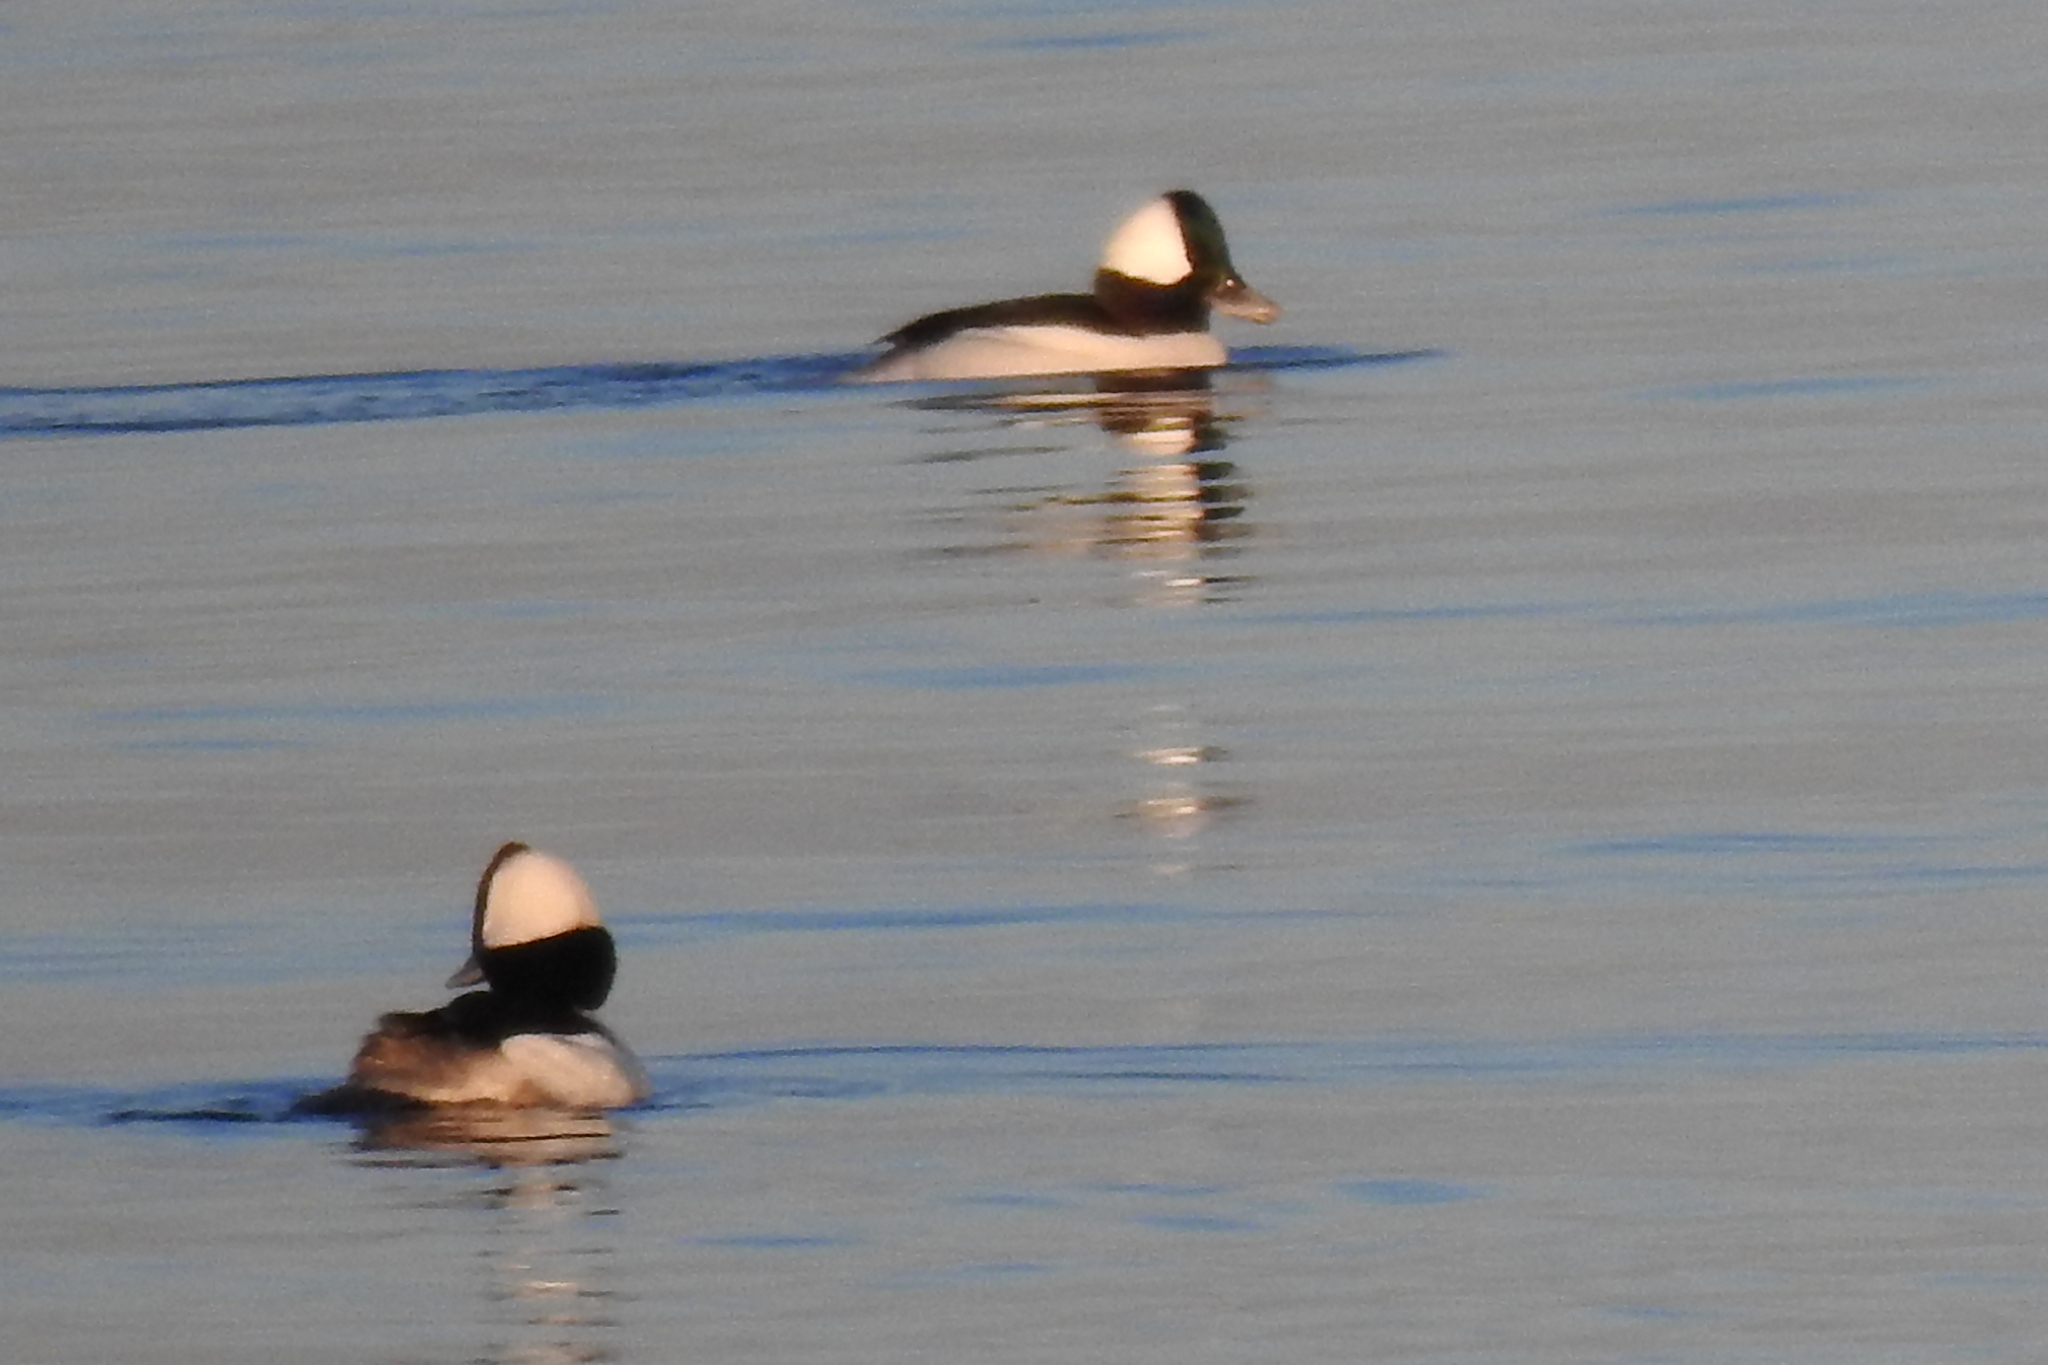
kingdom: Animalia
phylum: Chordata
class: Aves
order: Anseriformes
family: Anatidae
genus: Bucephala
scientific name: Bucephala albeola
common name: Bufflehead
